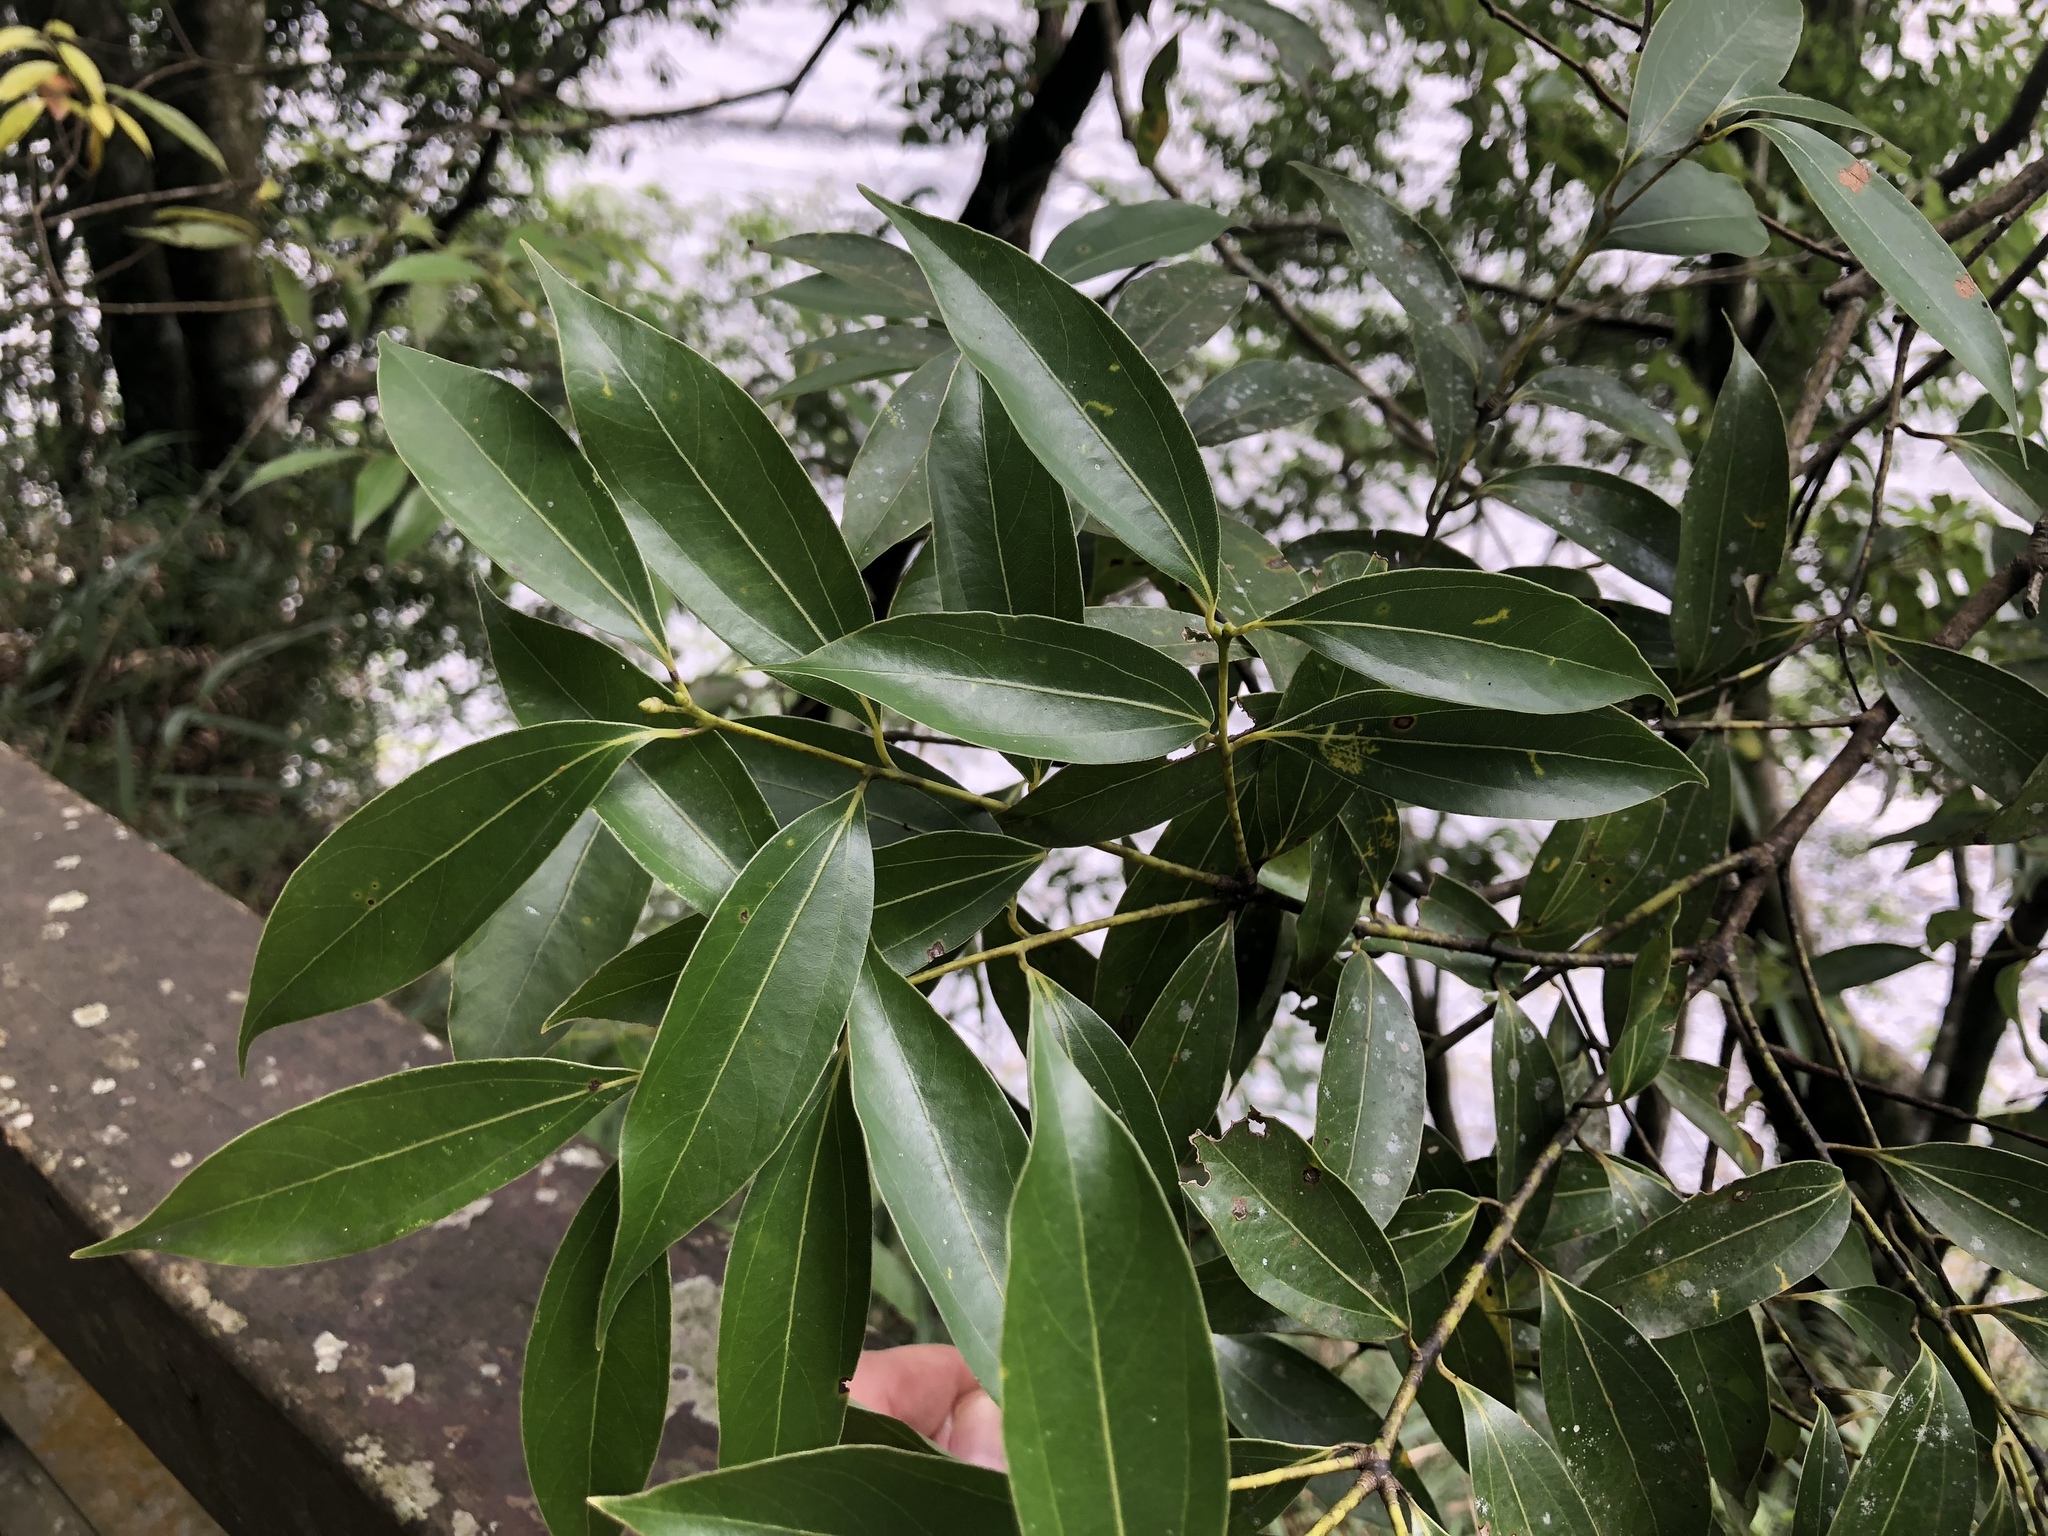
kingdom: Plantae
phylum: Tracheophyta
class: Magnoliopsida
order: Laurales
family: Lauraceae
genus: Cinnamomum
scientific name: Cinnamomum chekiangense
